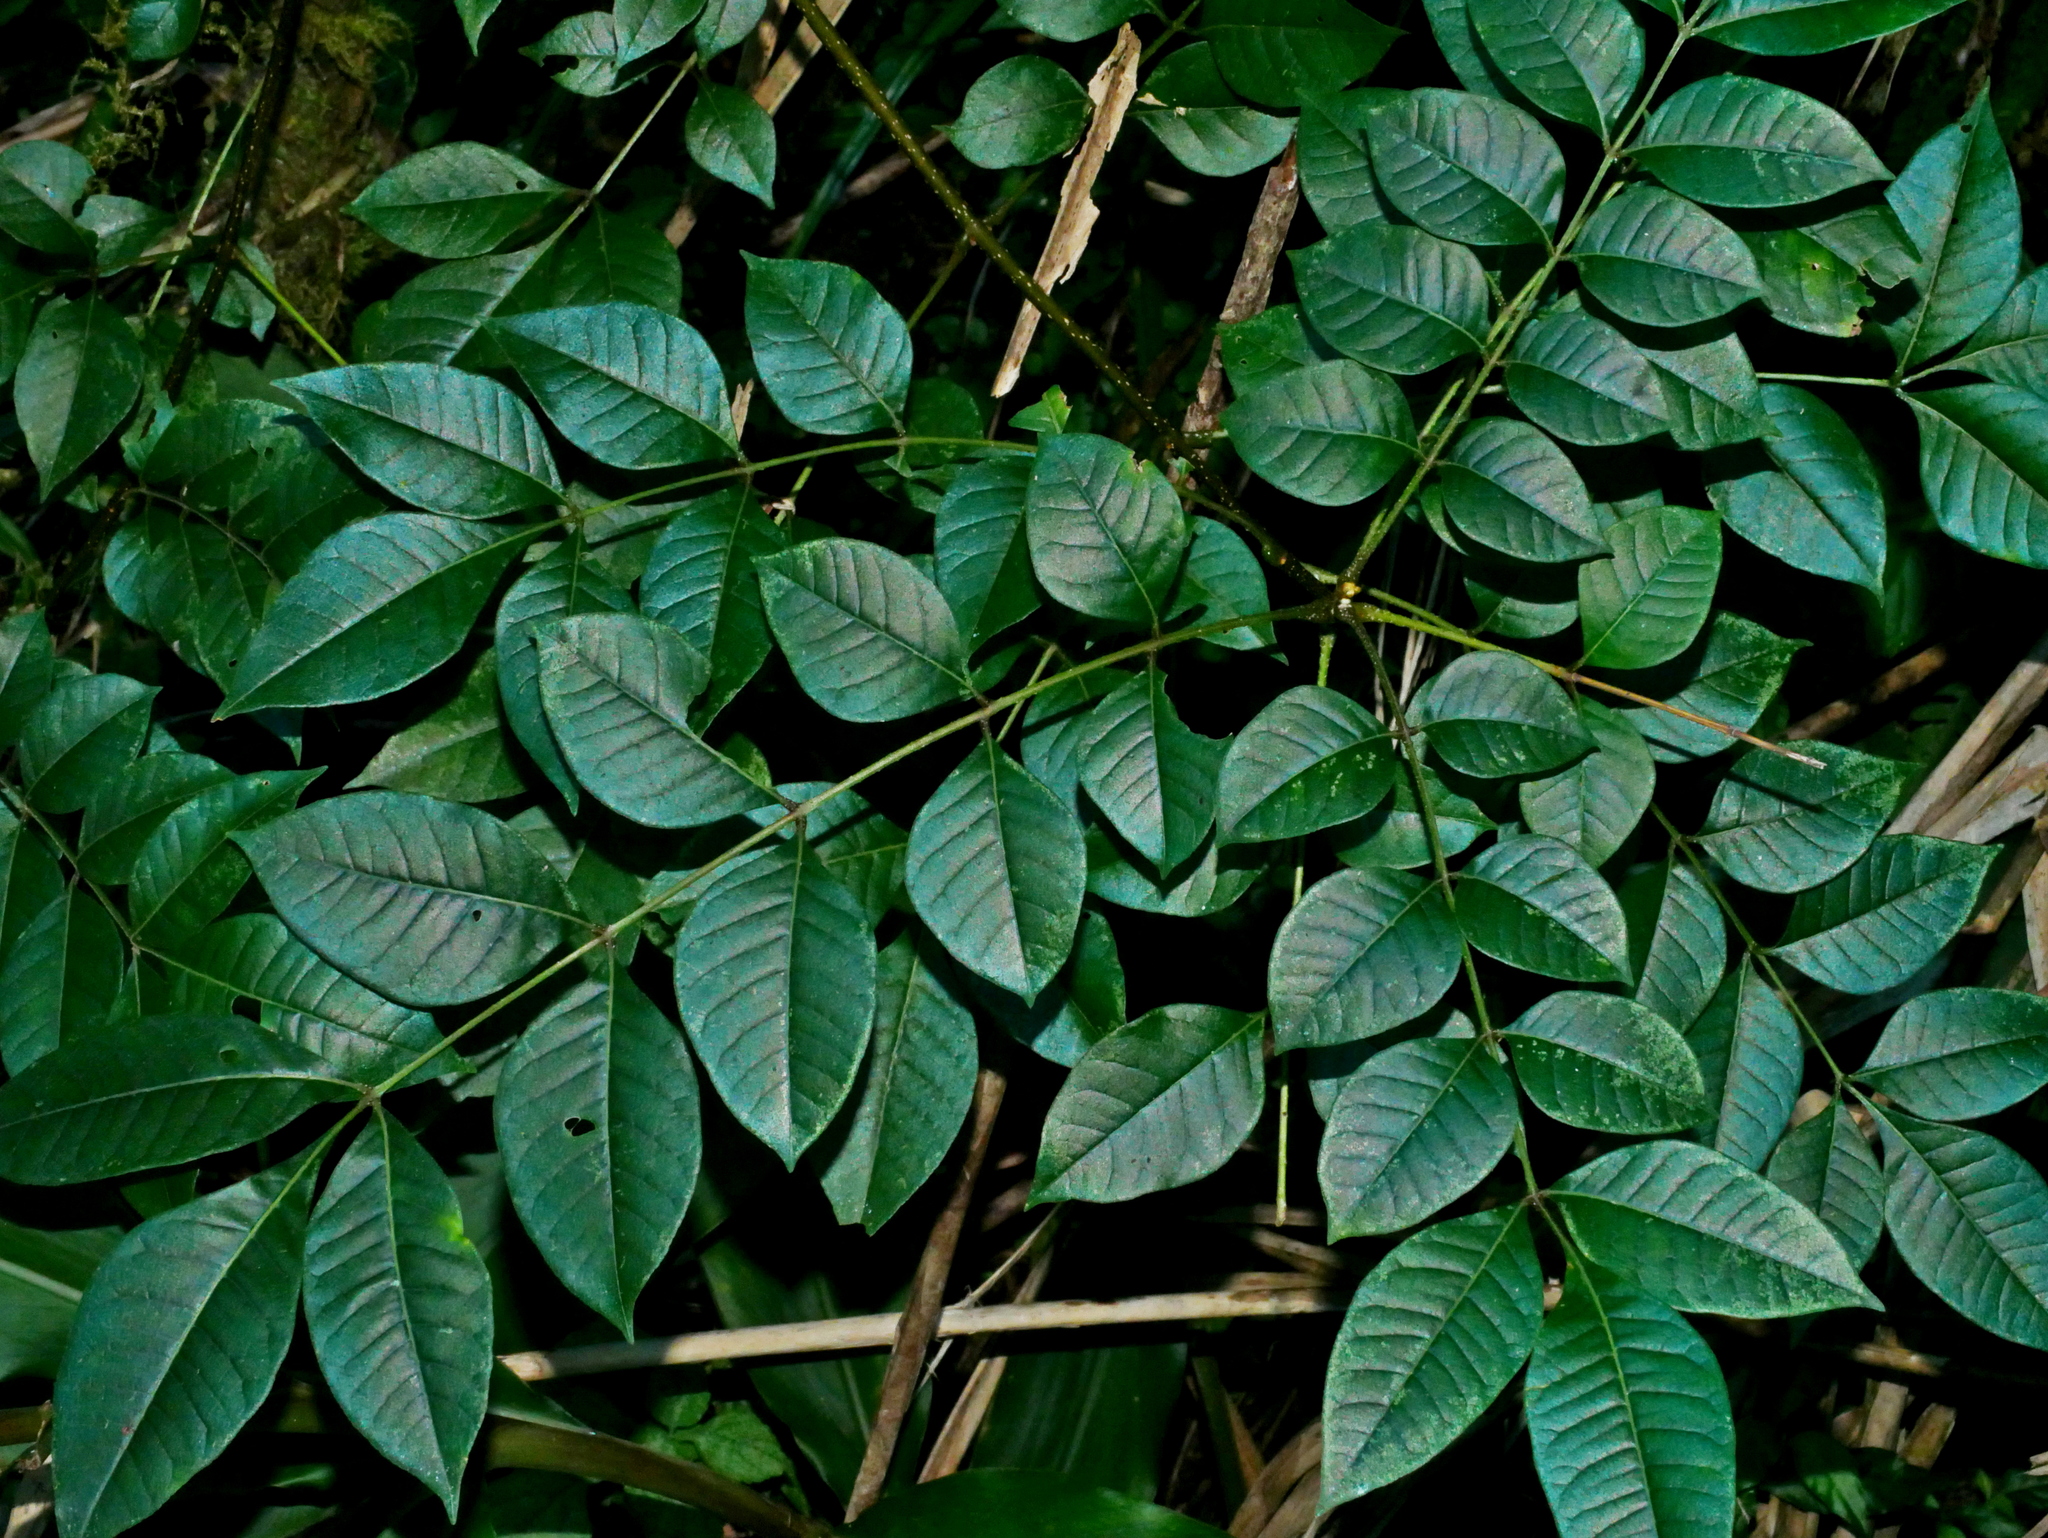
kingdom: Plantae
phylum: Tracheophyta
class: Magnoliopsida
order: Sapindales
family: Rutaceae
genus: Tetradium
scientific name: Tetradium ruticarpum
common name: Evodia
